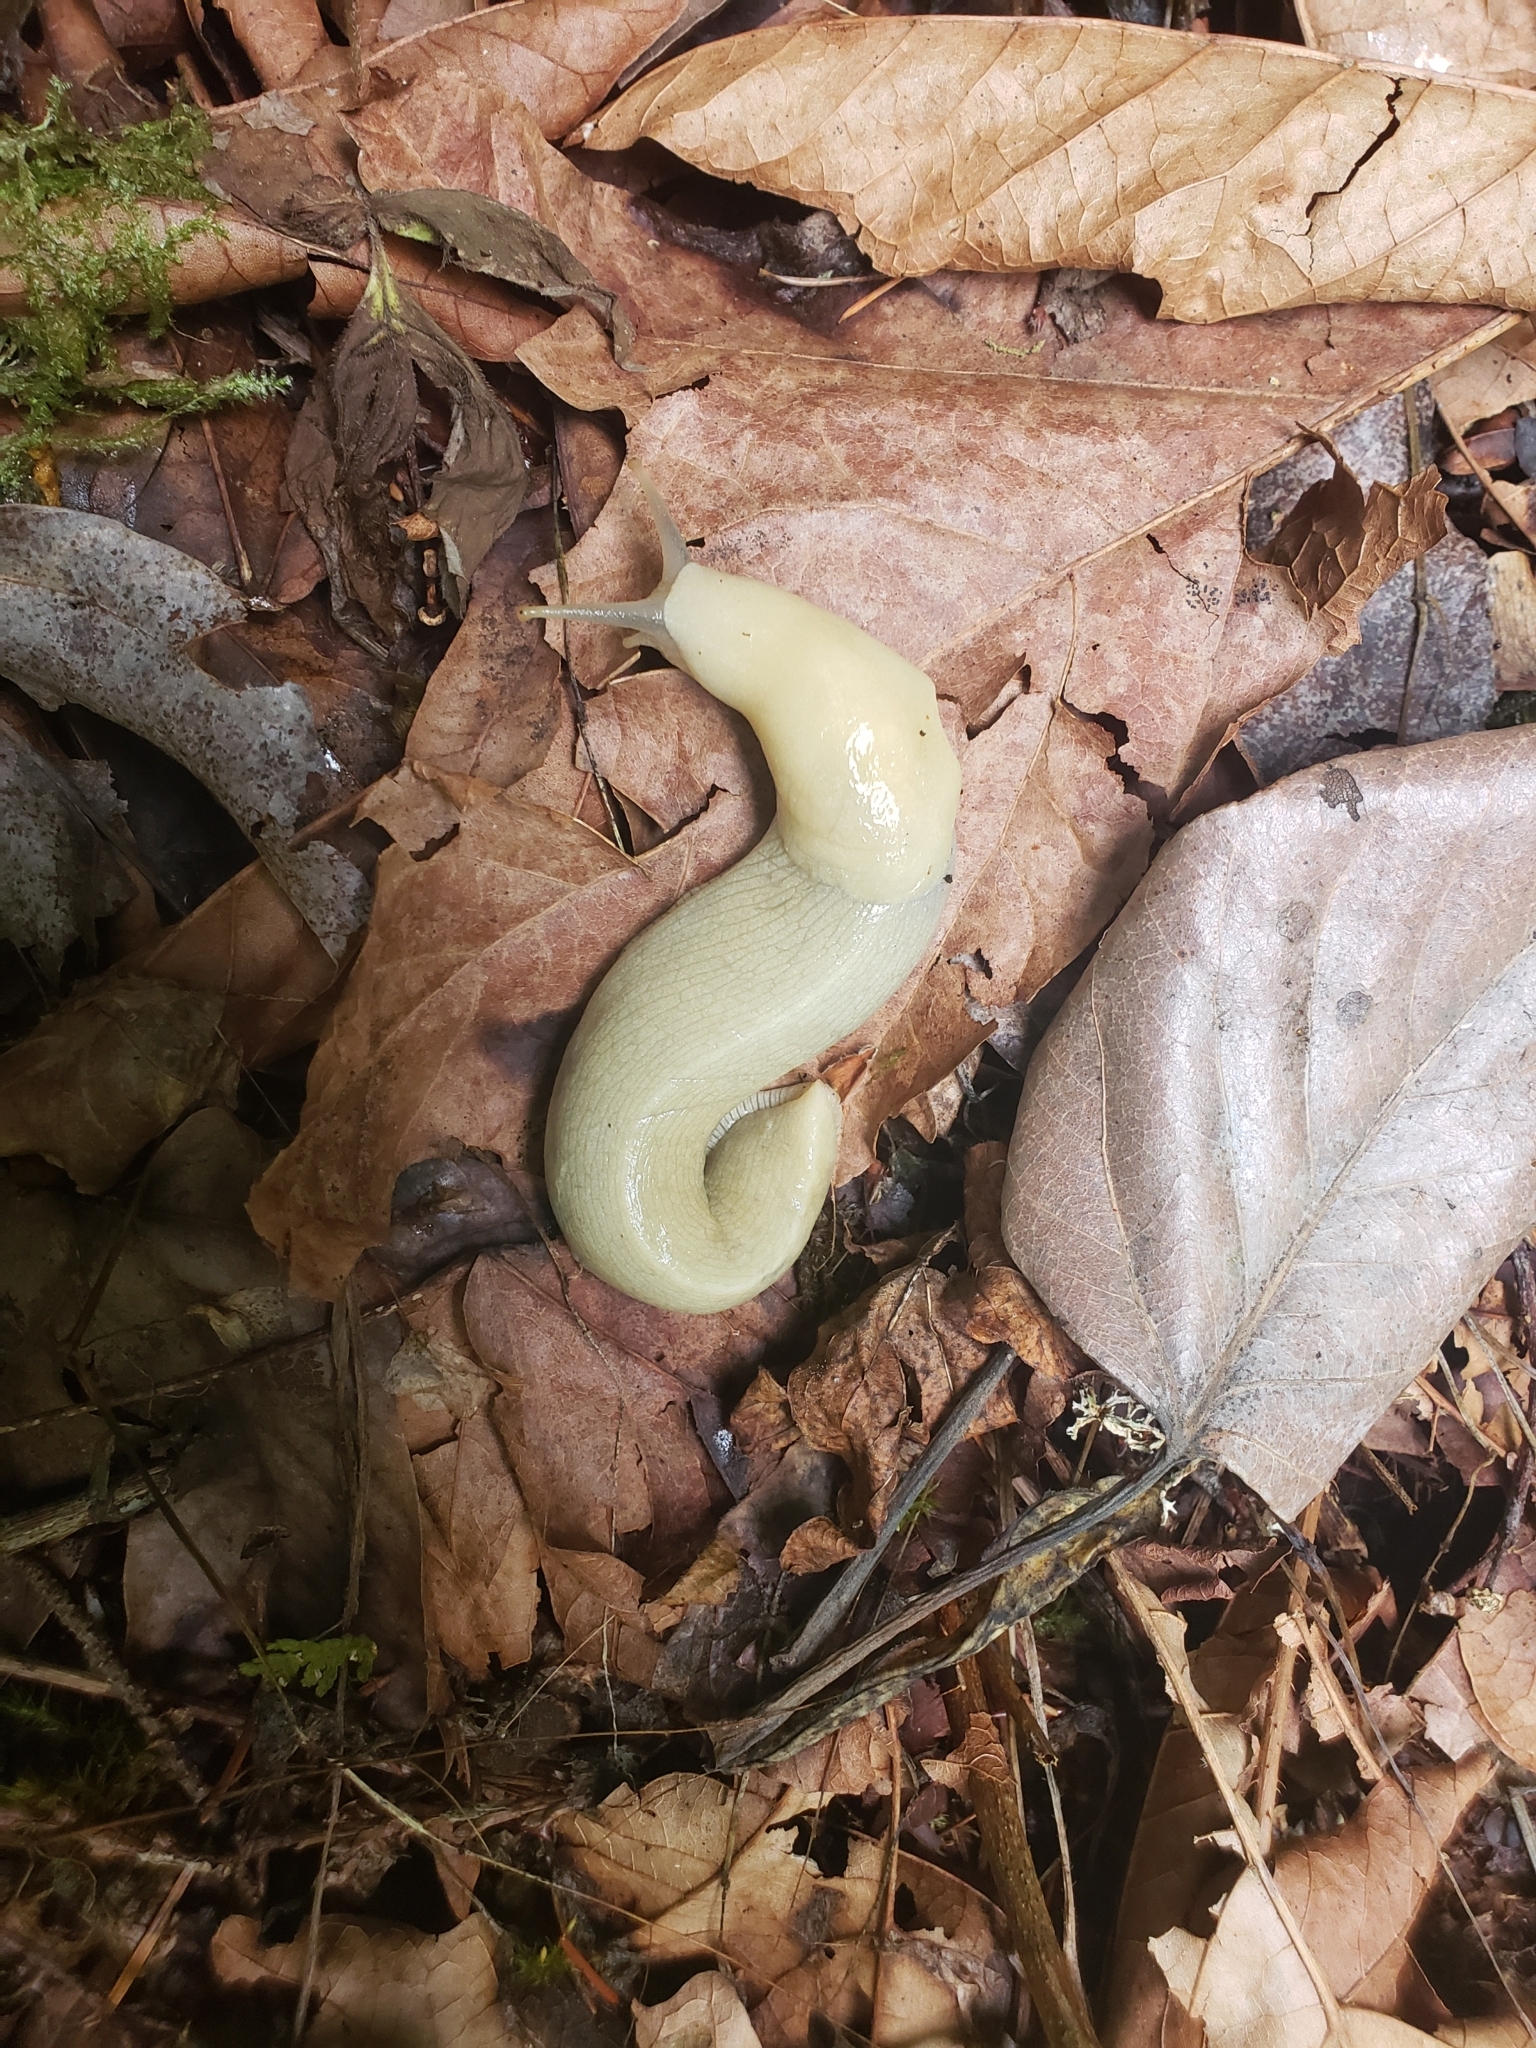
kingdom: Animalia
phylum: Mollusca
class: Gastropoda
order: Stylommatophora
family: Ariolimacidae
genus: Ariolimax
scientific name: Ariolimax columbianus
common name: Pacific banana slug
